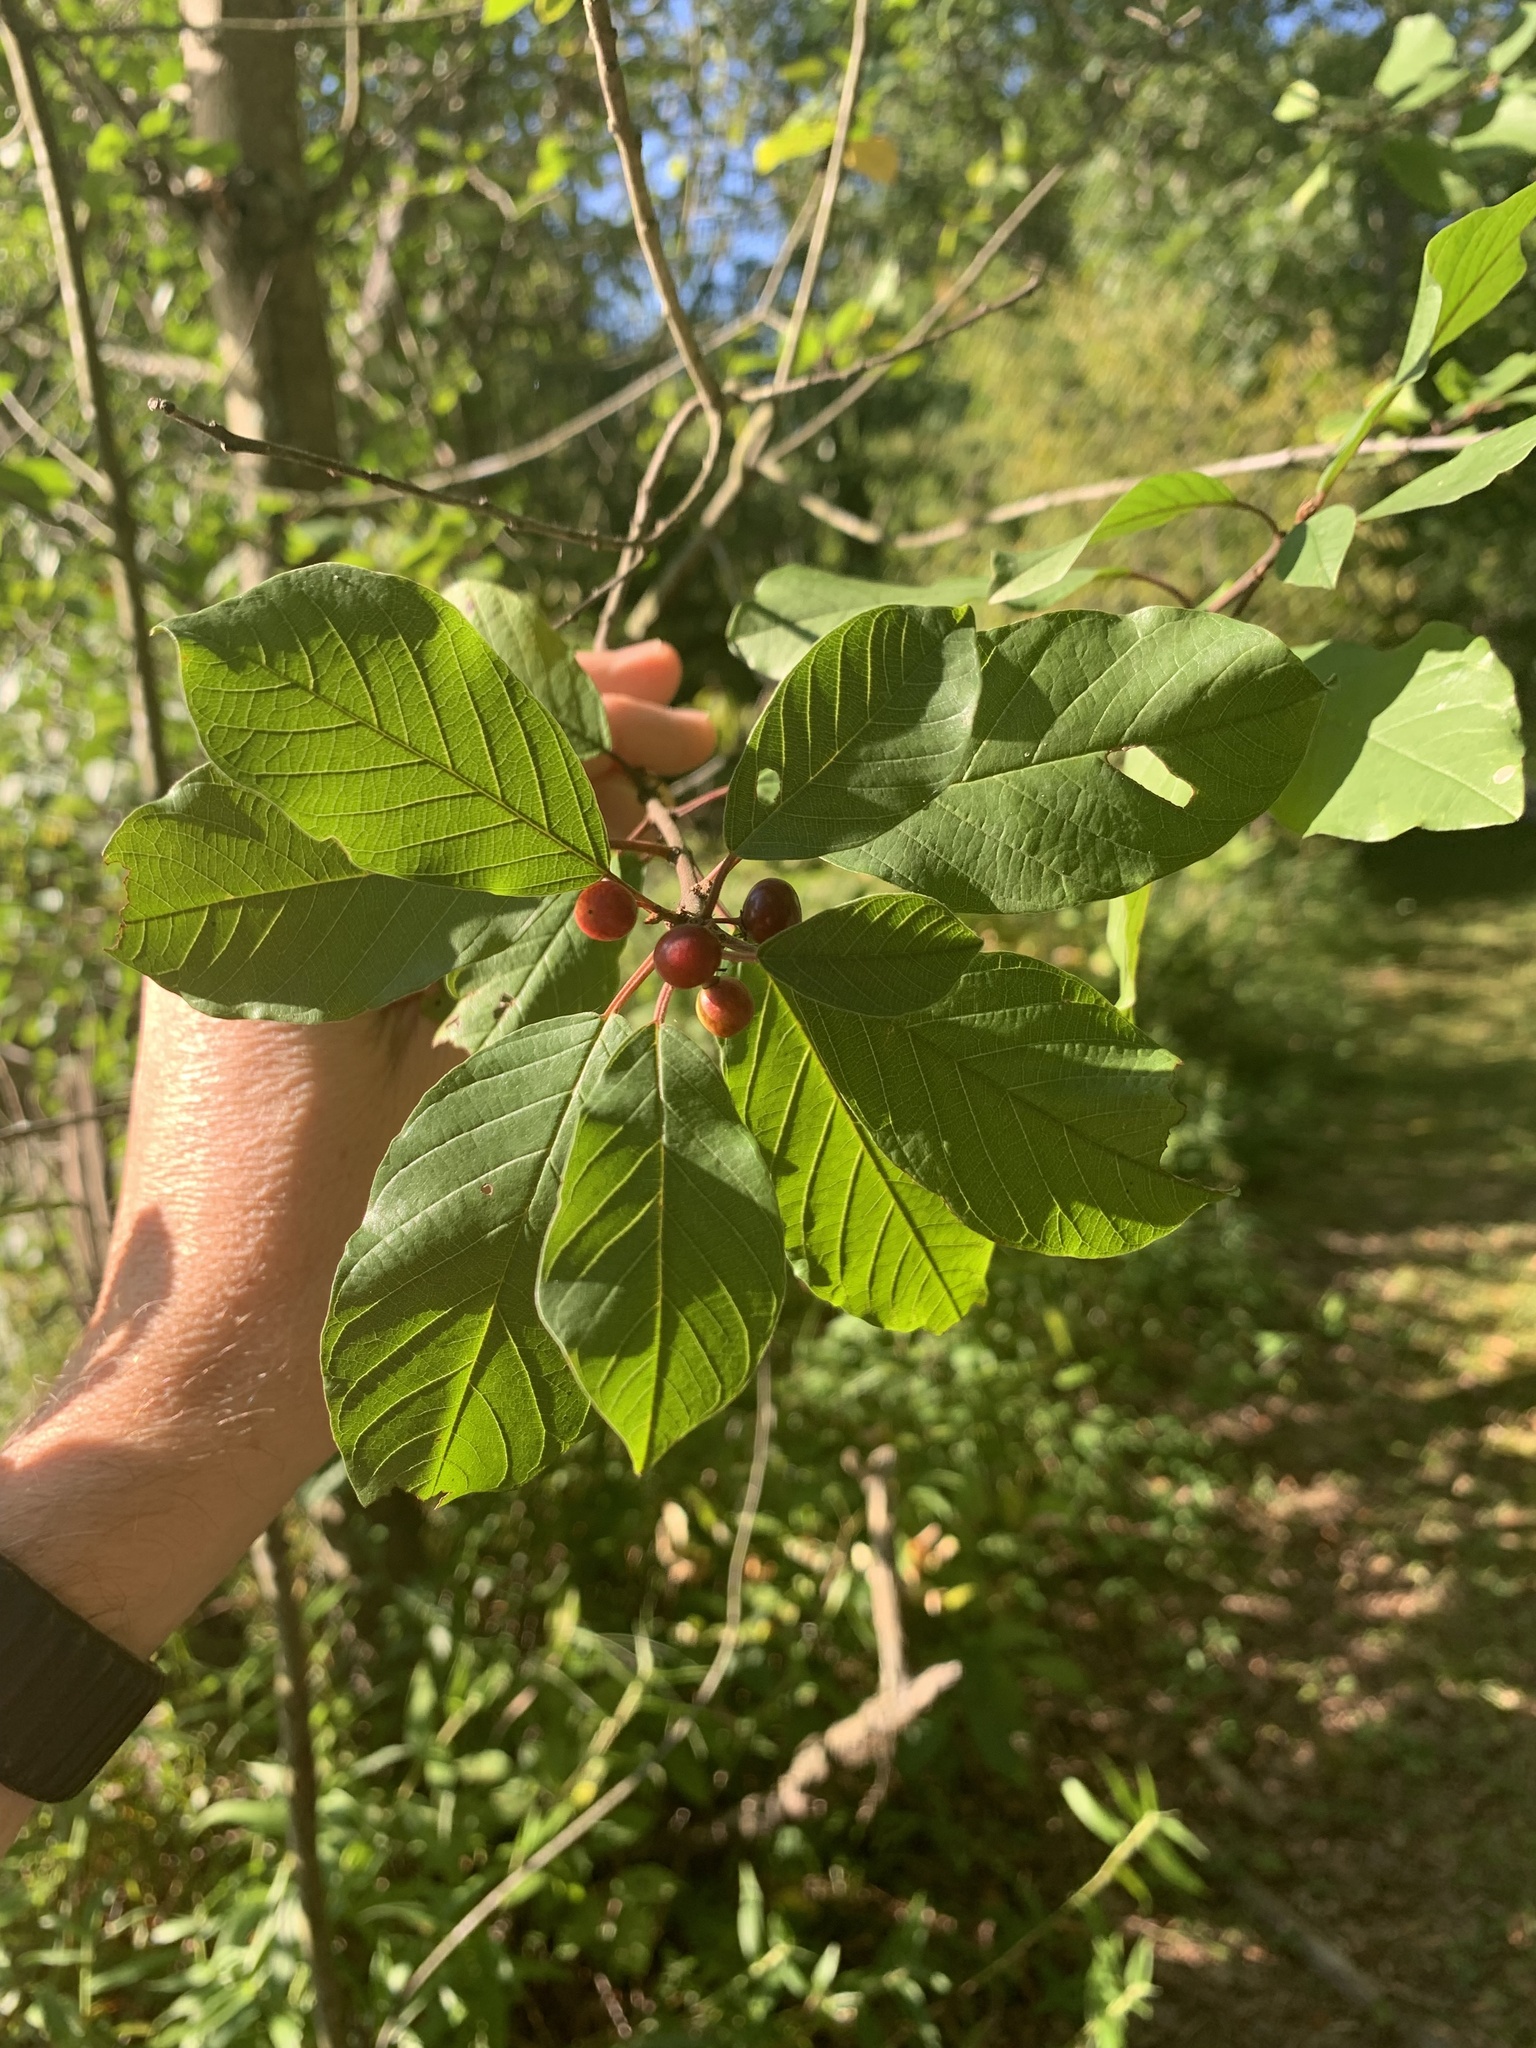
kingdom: Plantae
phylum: Tracheophyta
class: Magnoliopsida
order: Rosales
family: Rhamnaceae
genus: Frangula
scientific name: Frangula alnus
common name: Alder buckthorn
